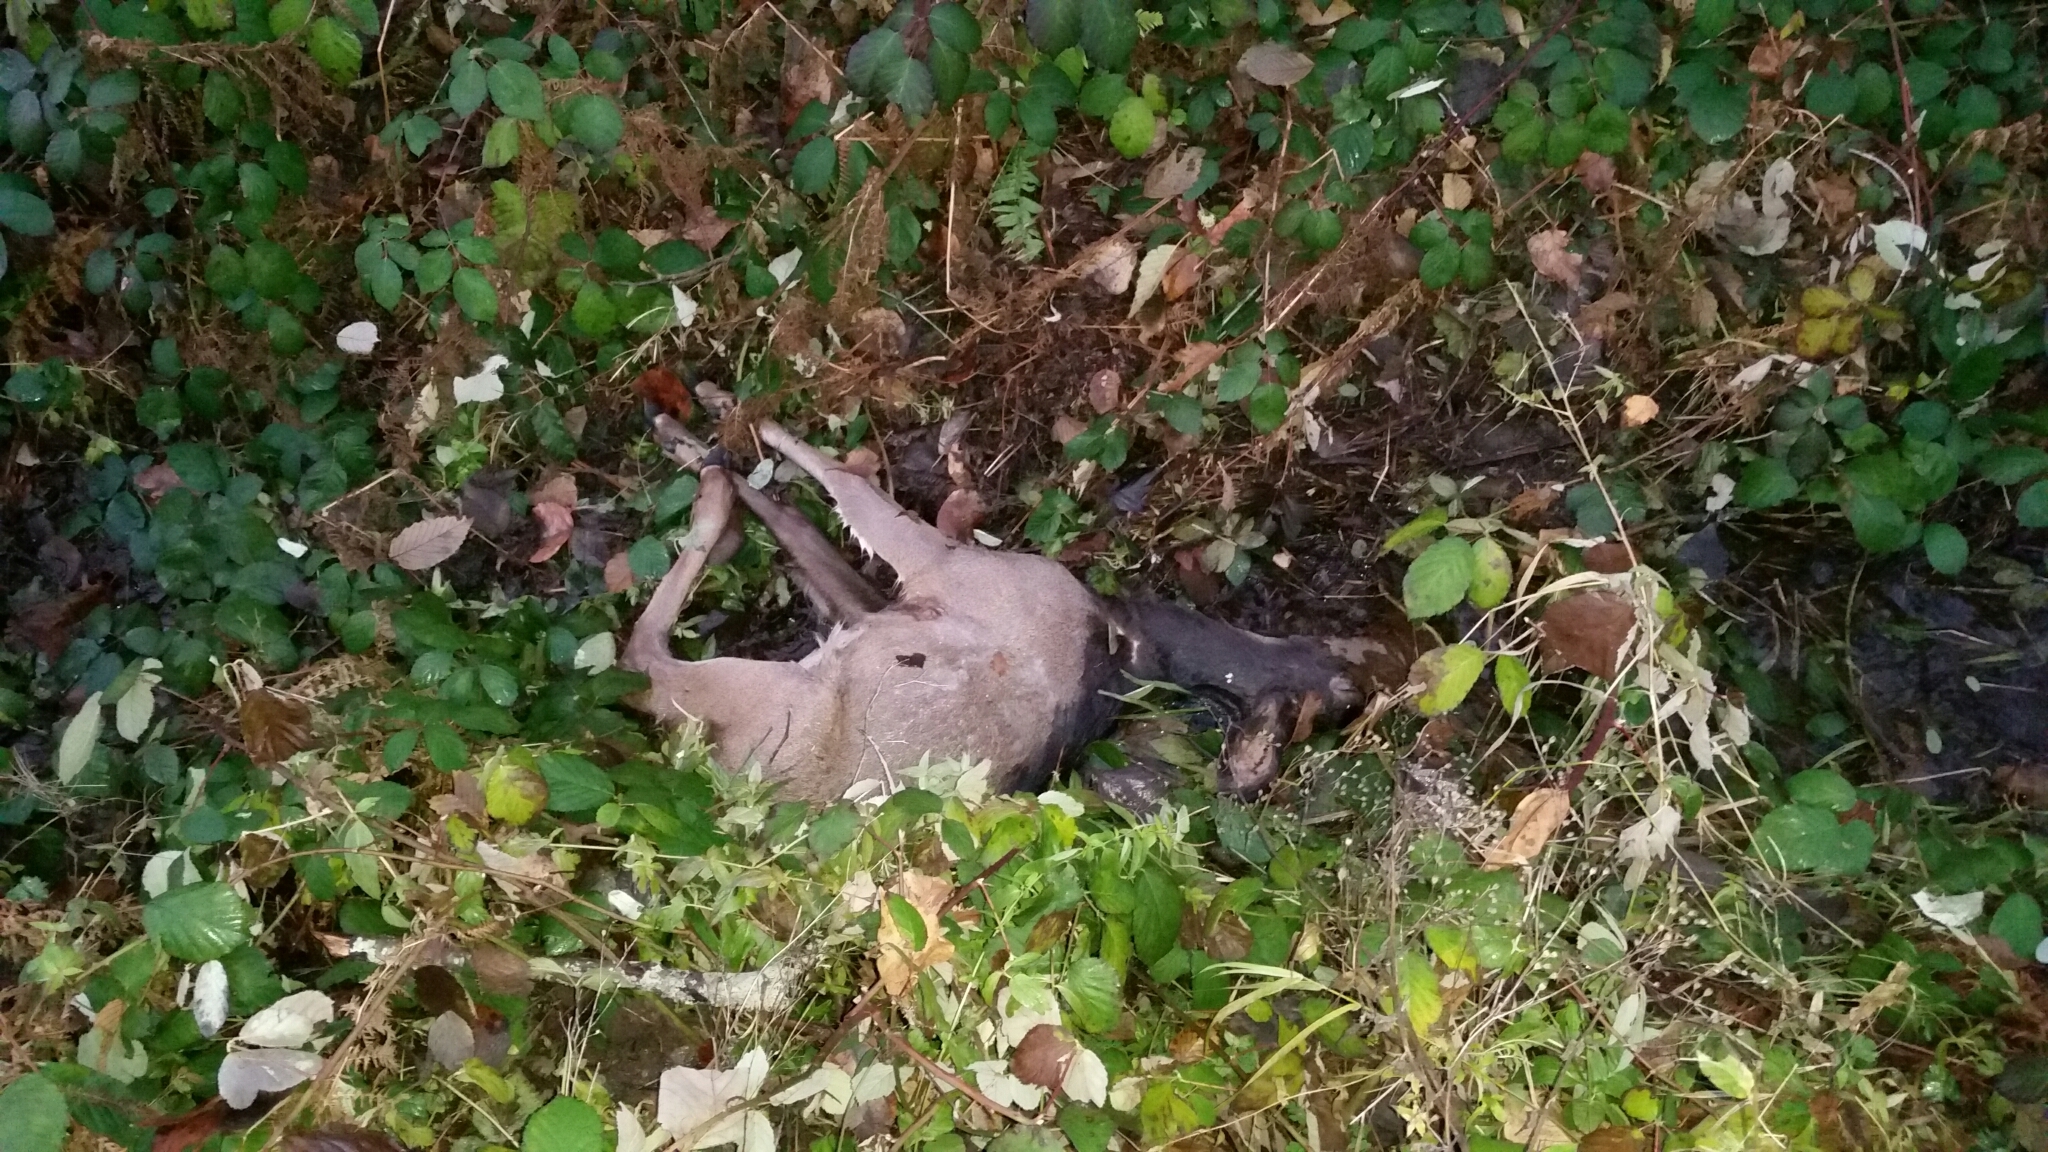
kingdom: Animalia
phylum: Chordata
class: Mammalia
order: Artiodactyla
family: Cervidae
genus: Odocoileus
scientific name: Odocoileus hemionus
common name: Mule deer
